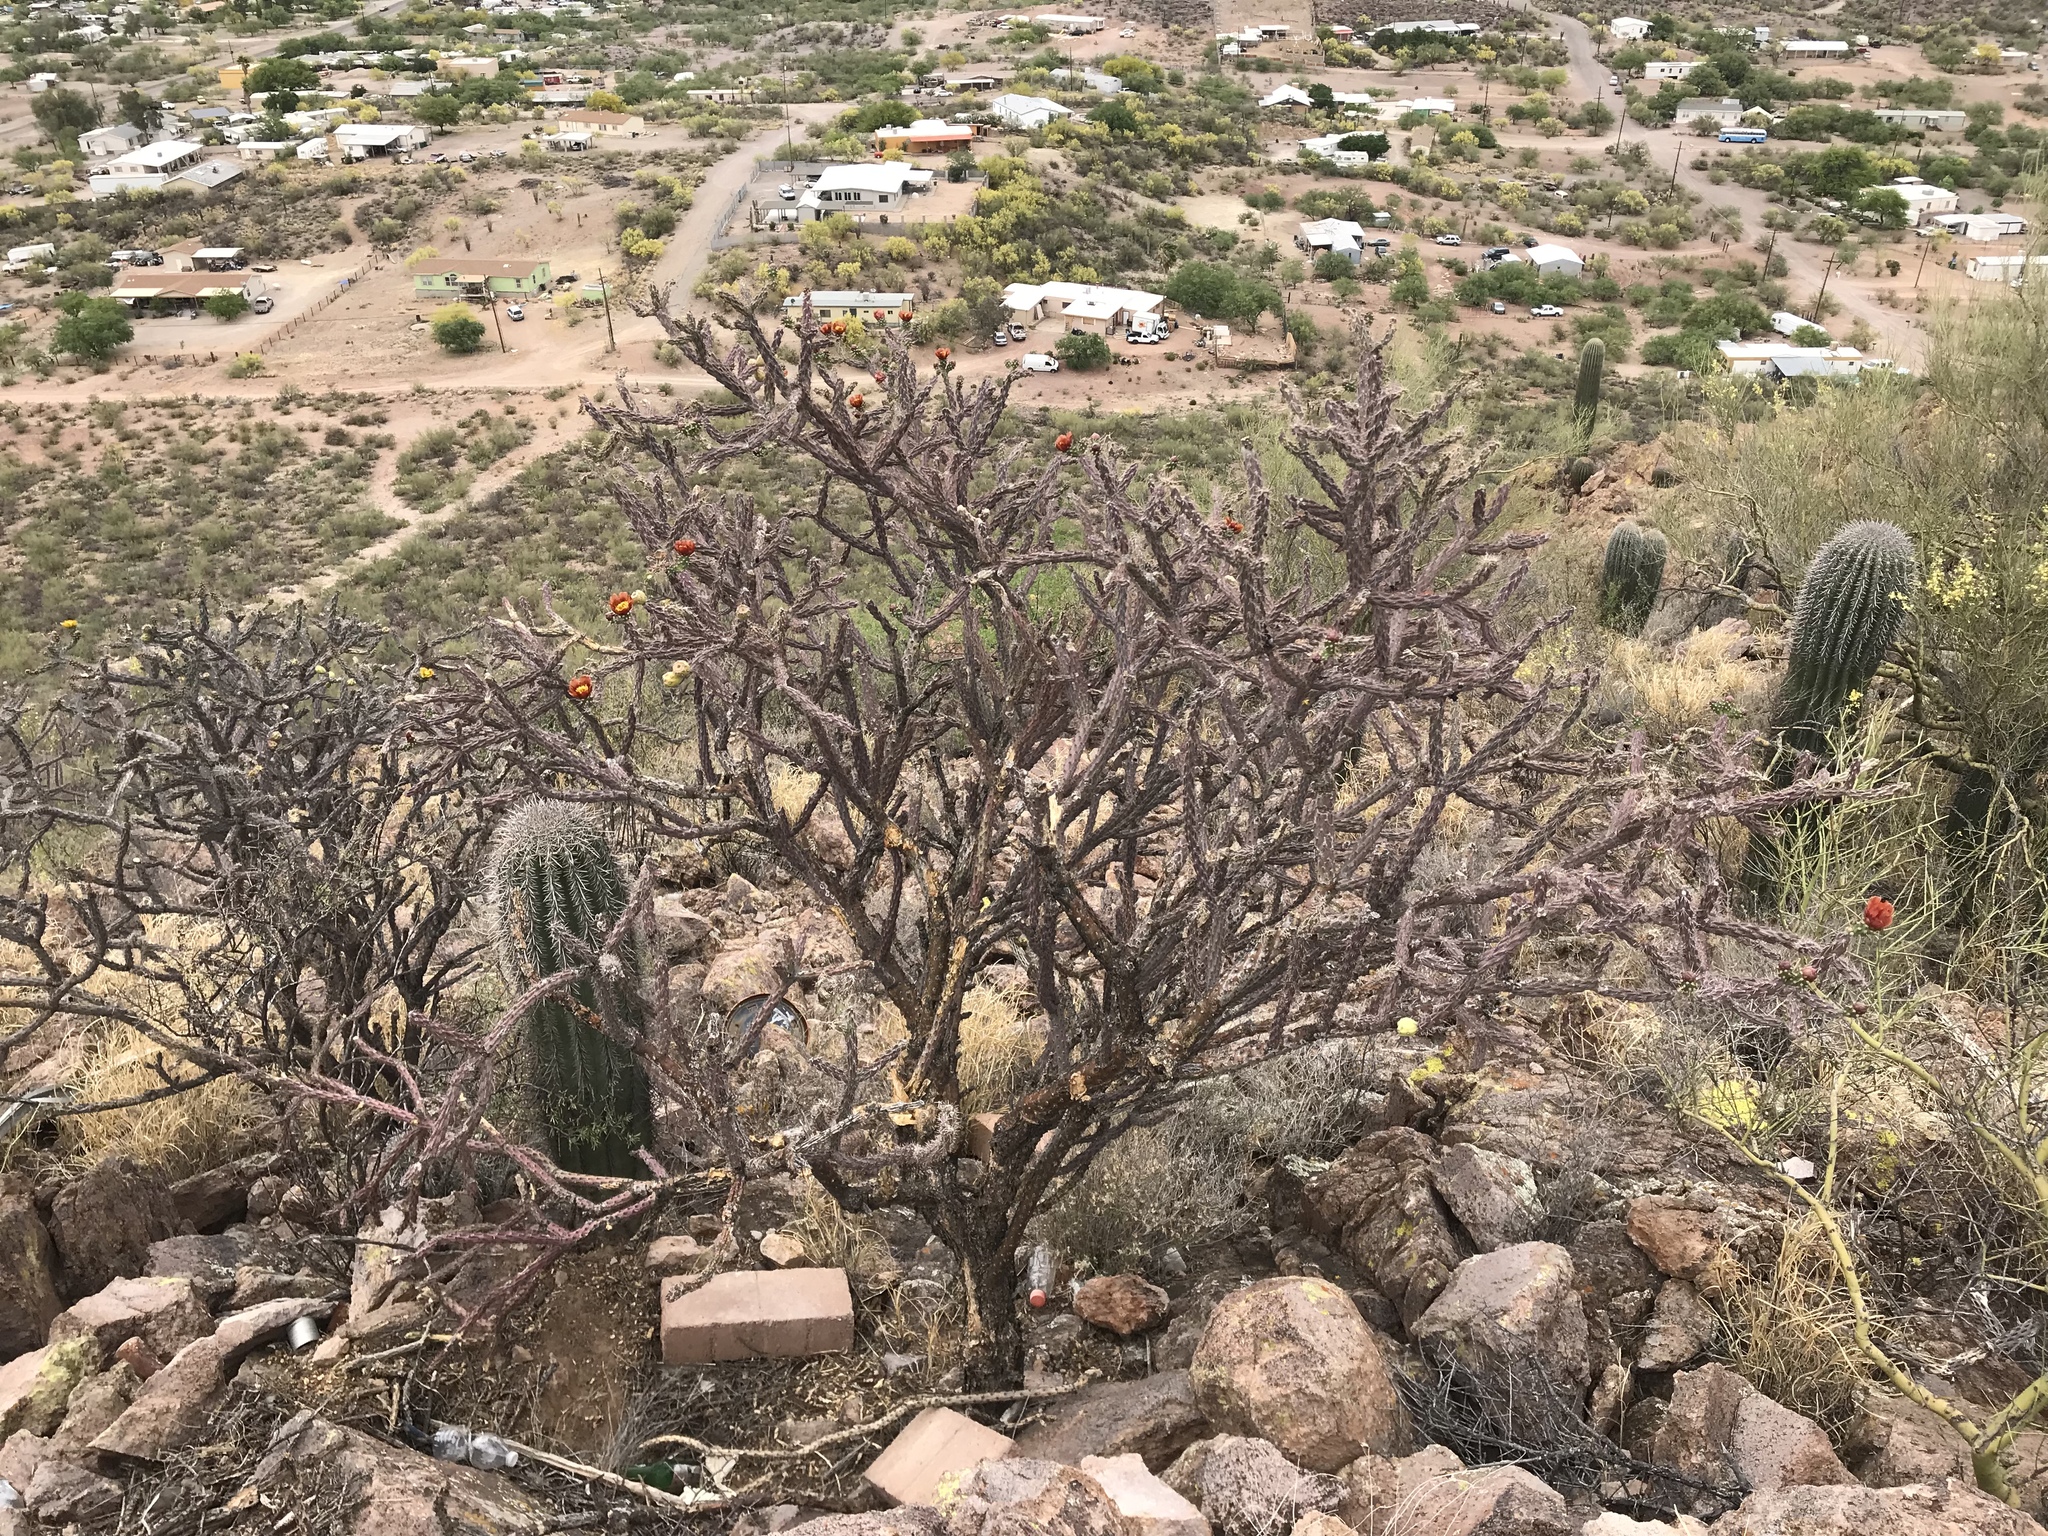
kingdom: Plantae
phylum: Tracheophyta
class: Magnoliopsida
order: Caryophyllales
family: Cactaceae
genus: Cylindropuntia
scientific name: Cylindropuntia thurberi
